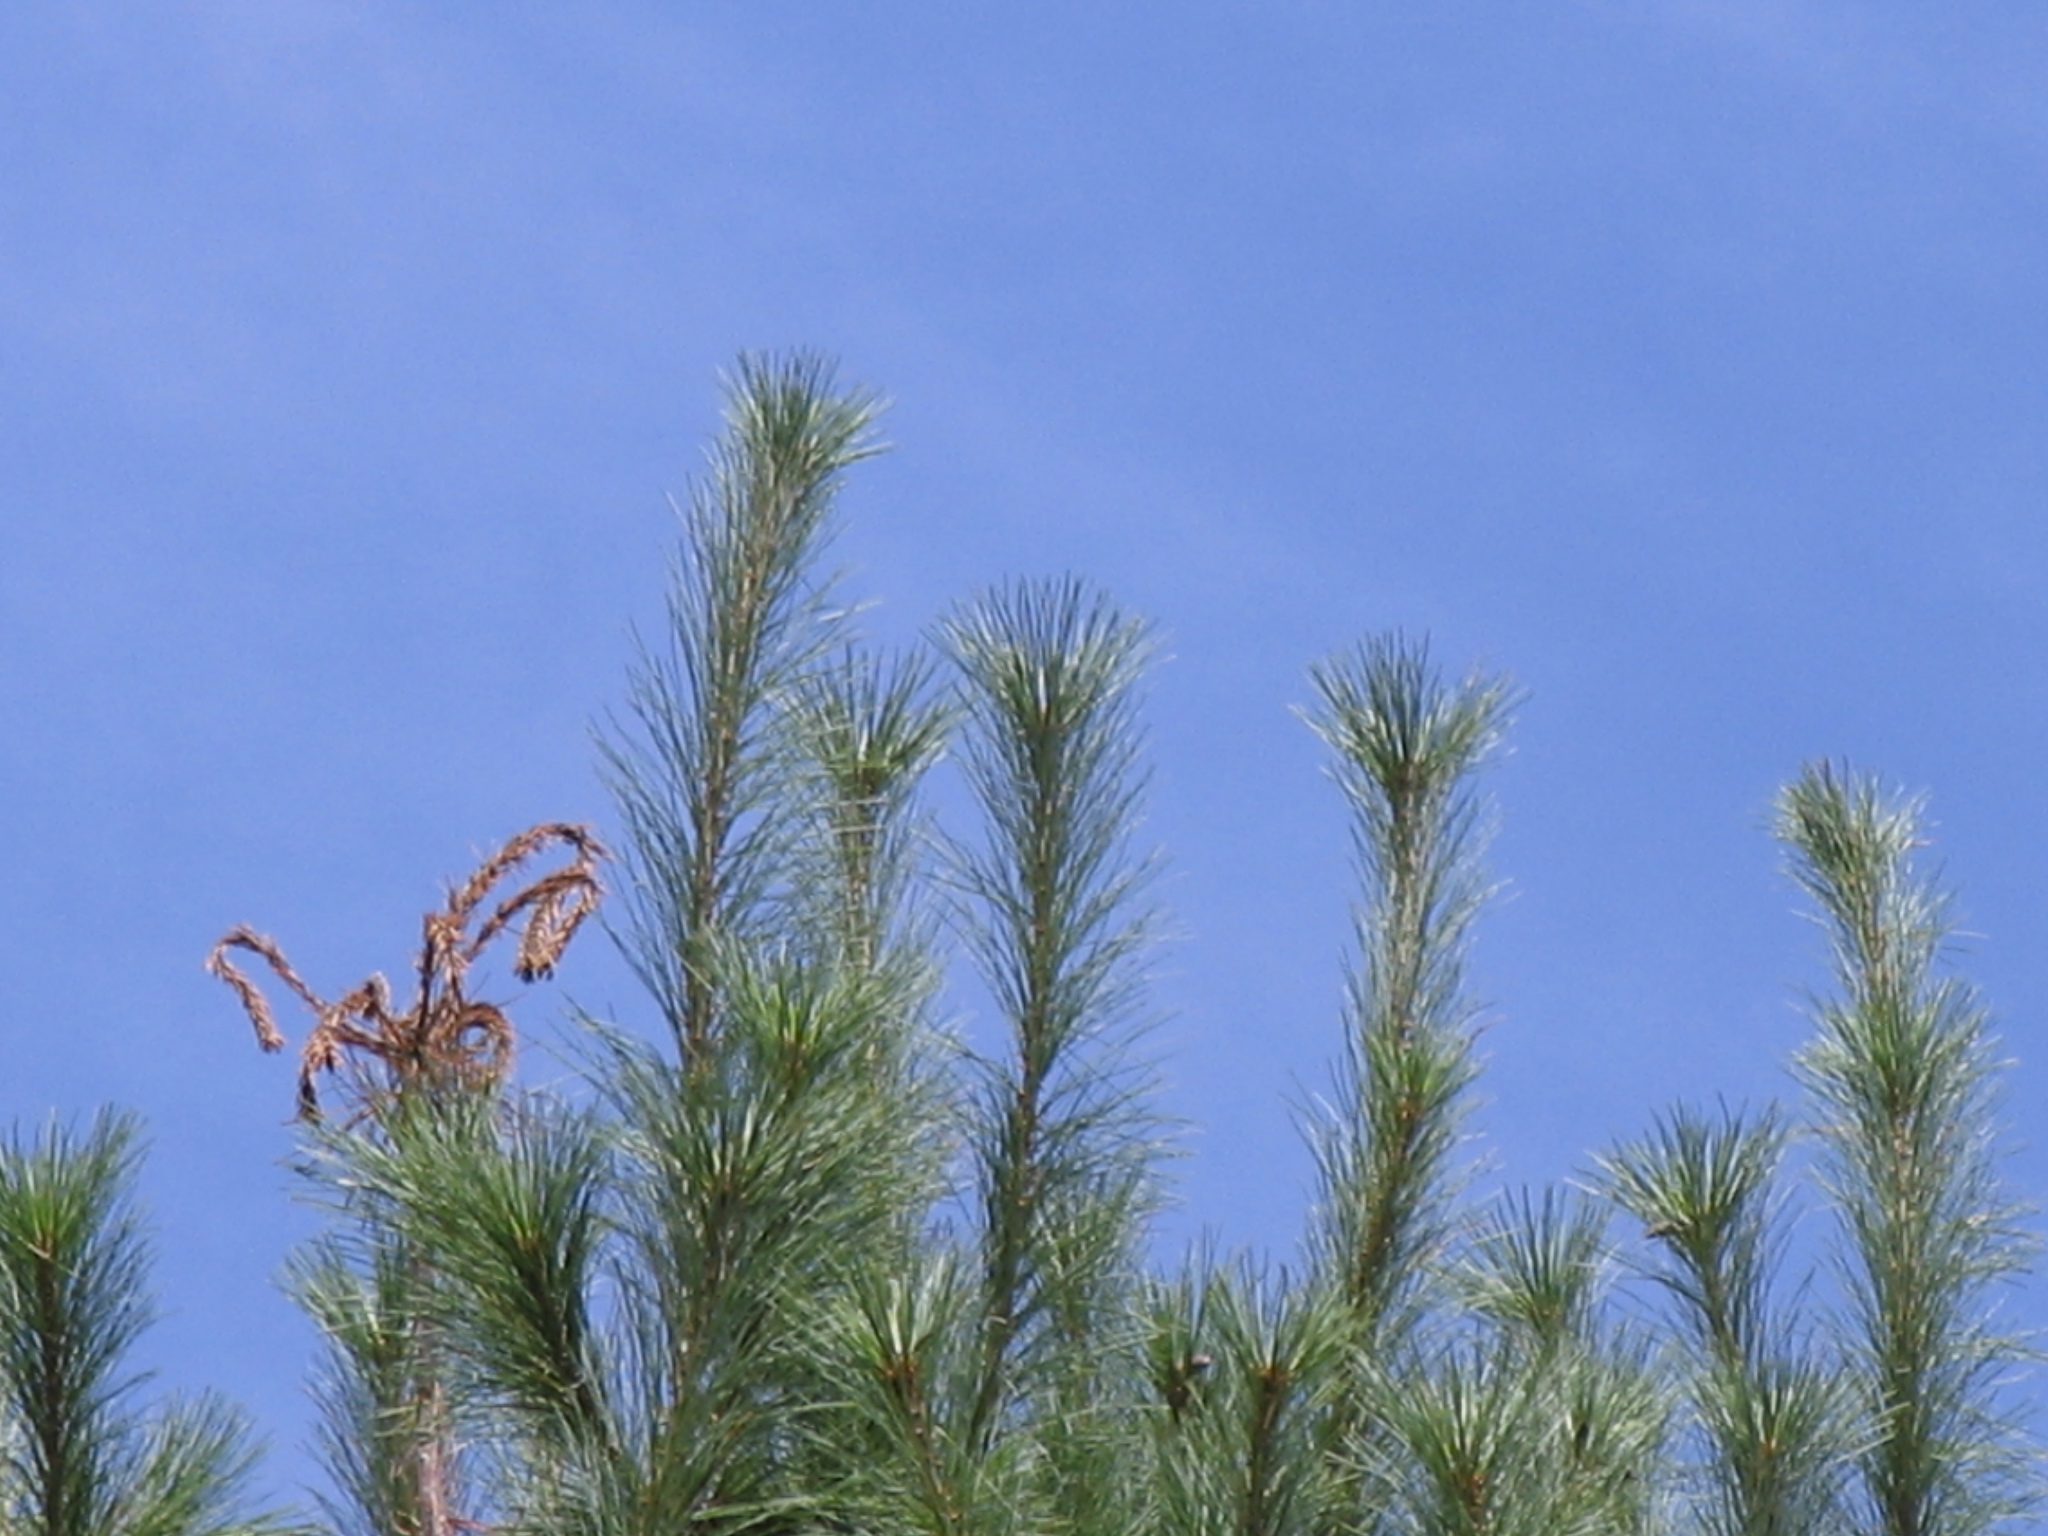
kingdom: Plantae
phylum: Tracheophyta
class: Pinopsida
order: Pinales
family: Pinaceae
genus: Pinus
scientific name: Pinus strobus
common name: Weymouth pine
